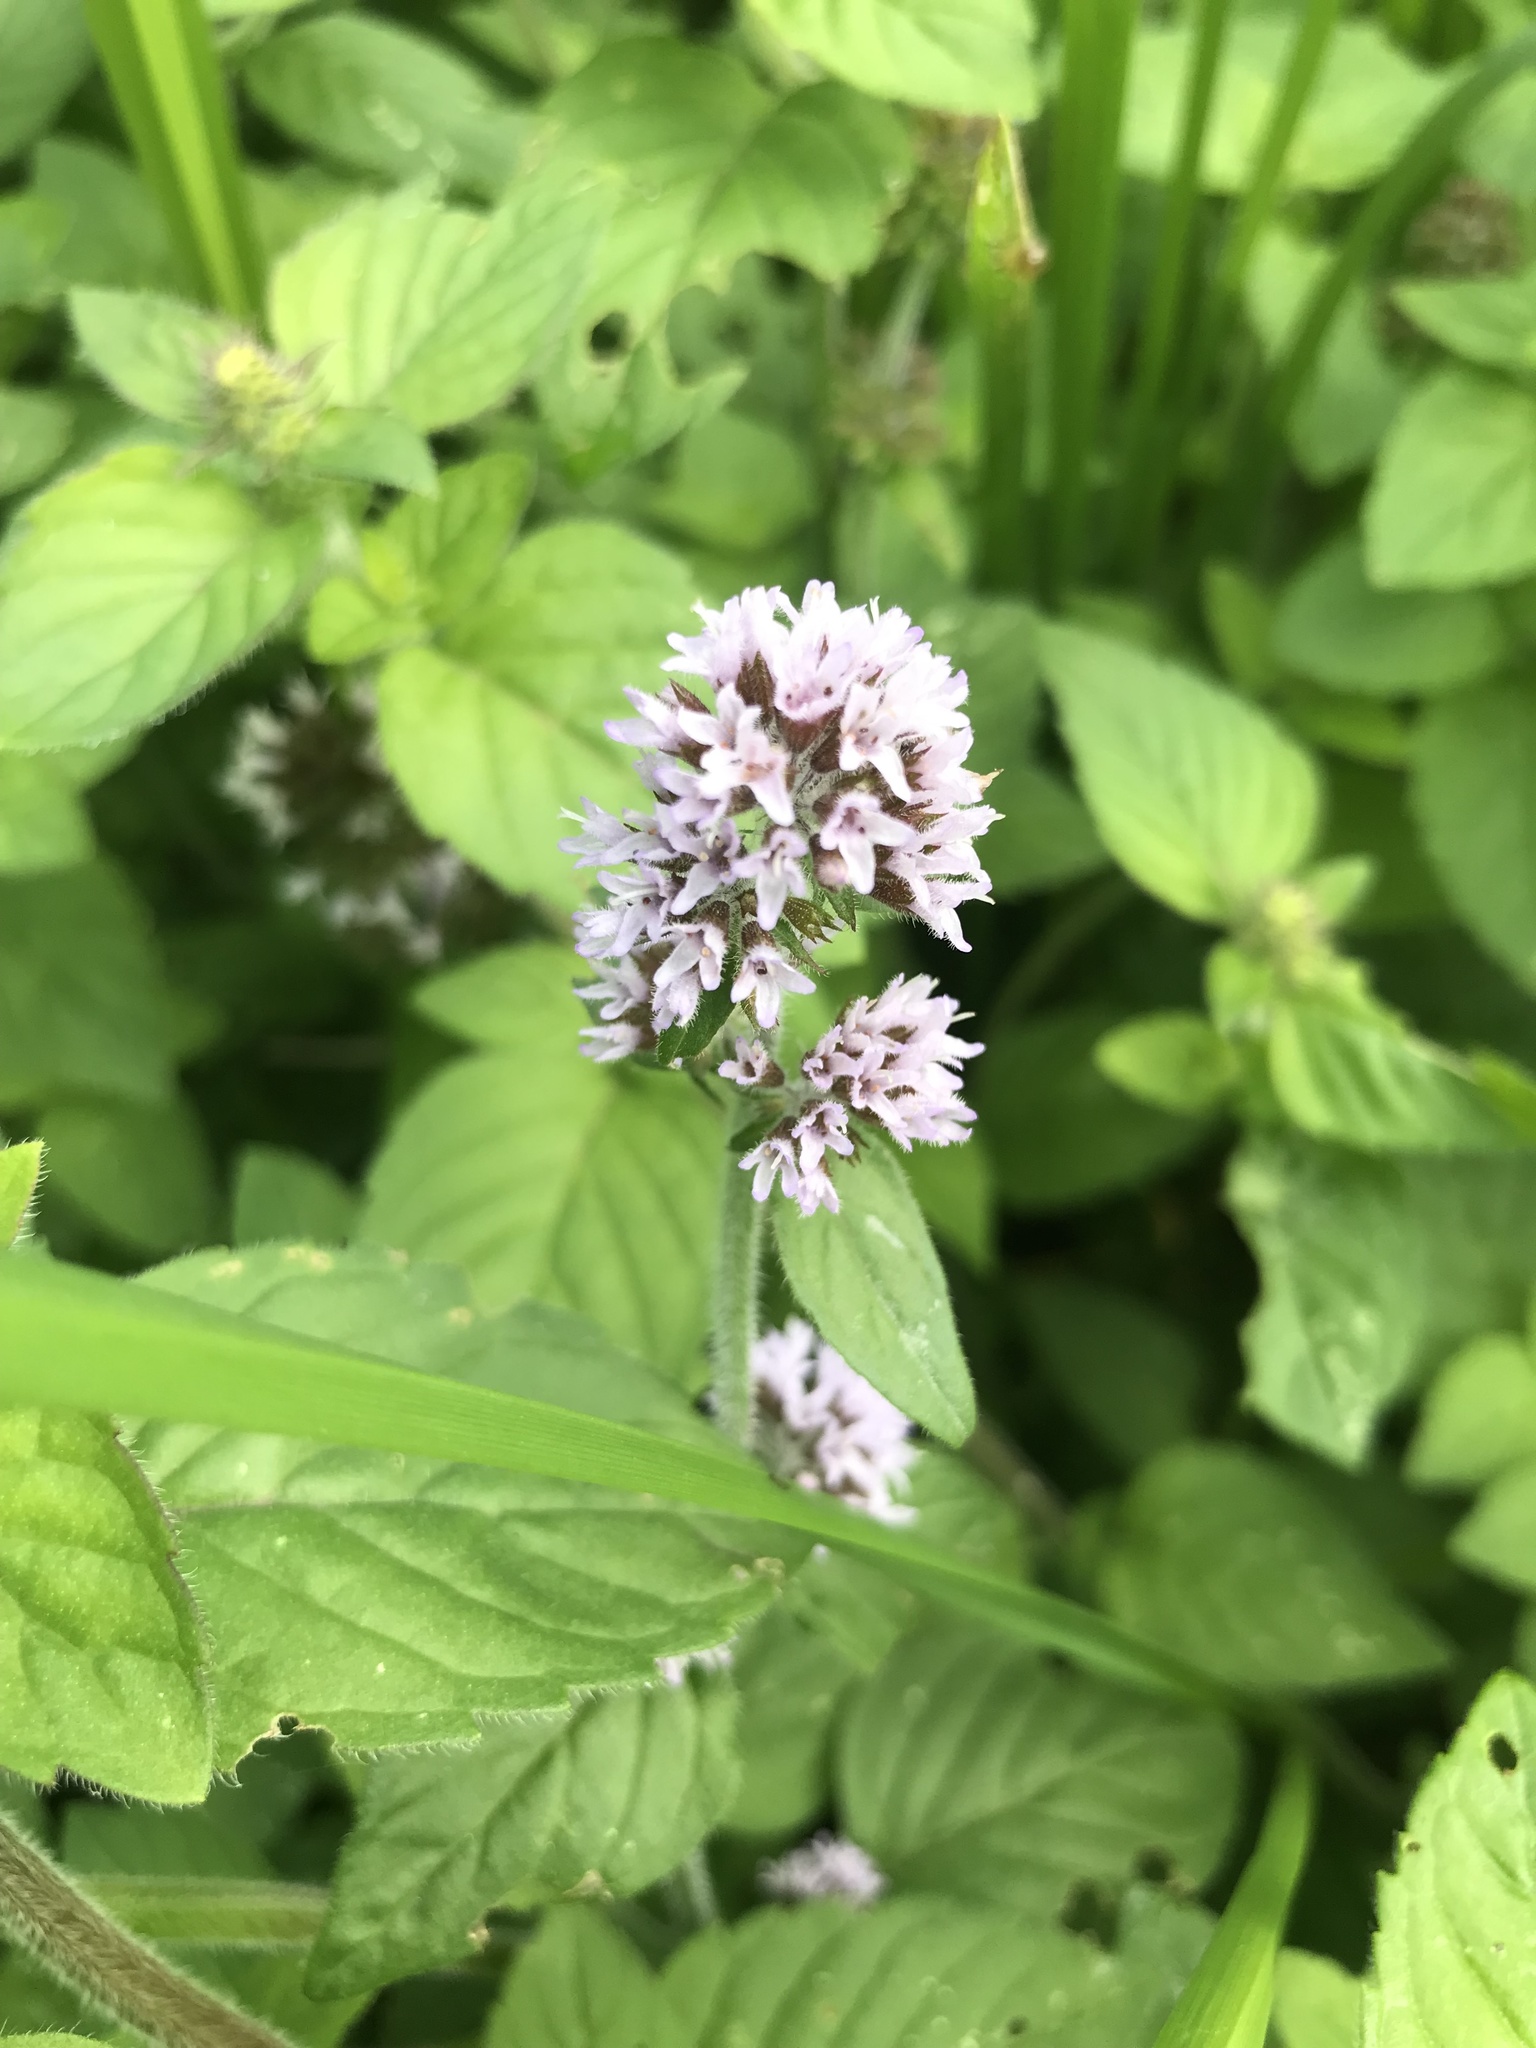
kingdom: Plantae
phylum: Tracheophyta
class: Magnoliopsida
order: Lamiales
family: Lamiaceae
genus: Mentha
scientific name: Mentha aquatica
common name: Water mint
